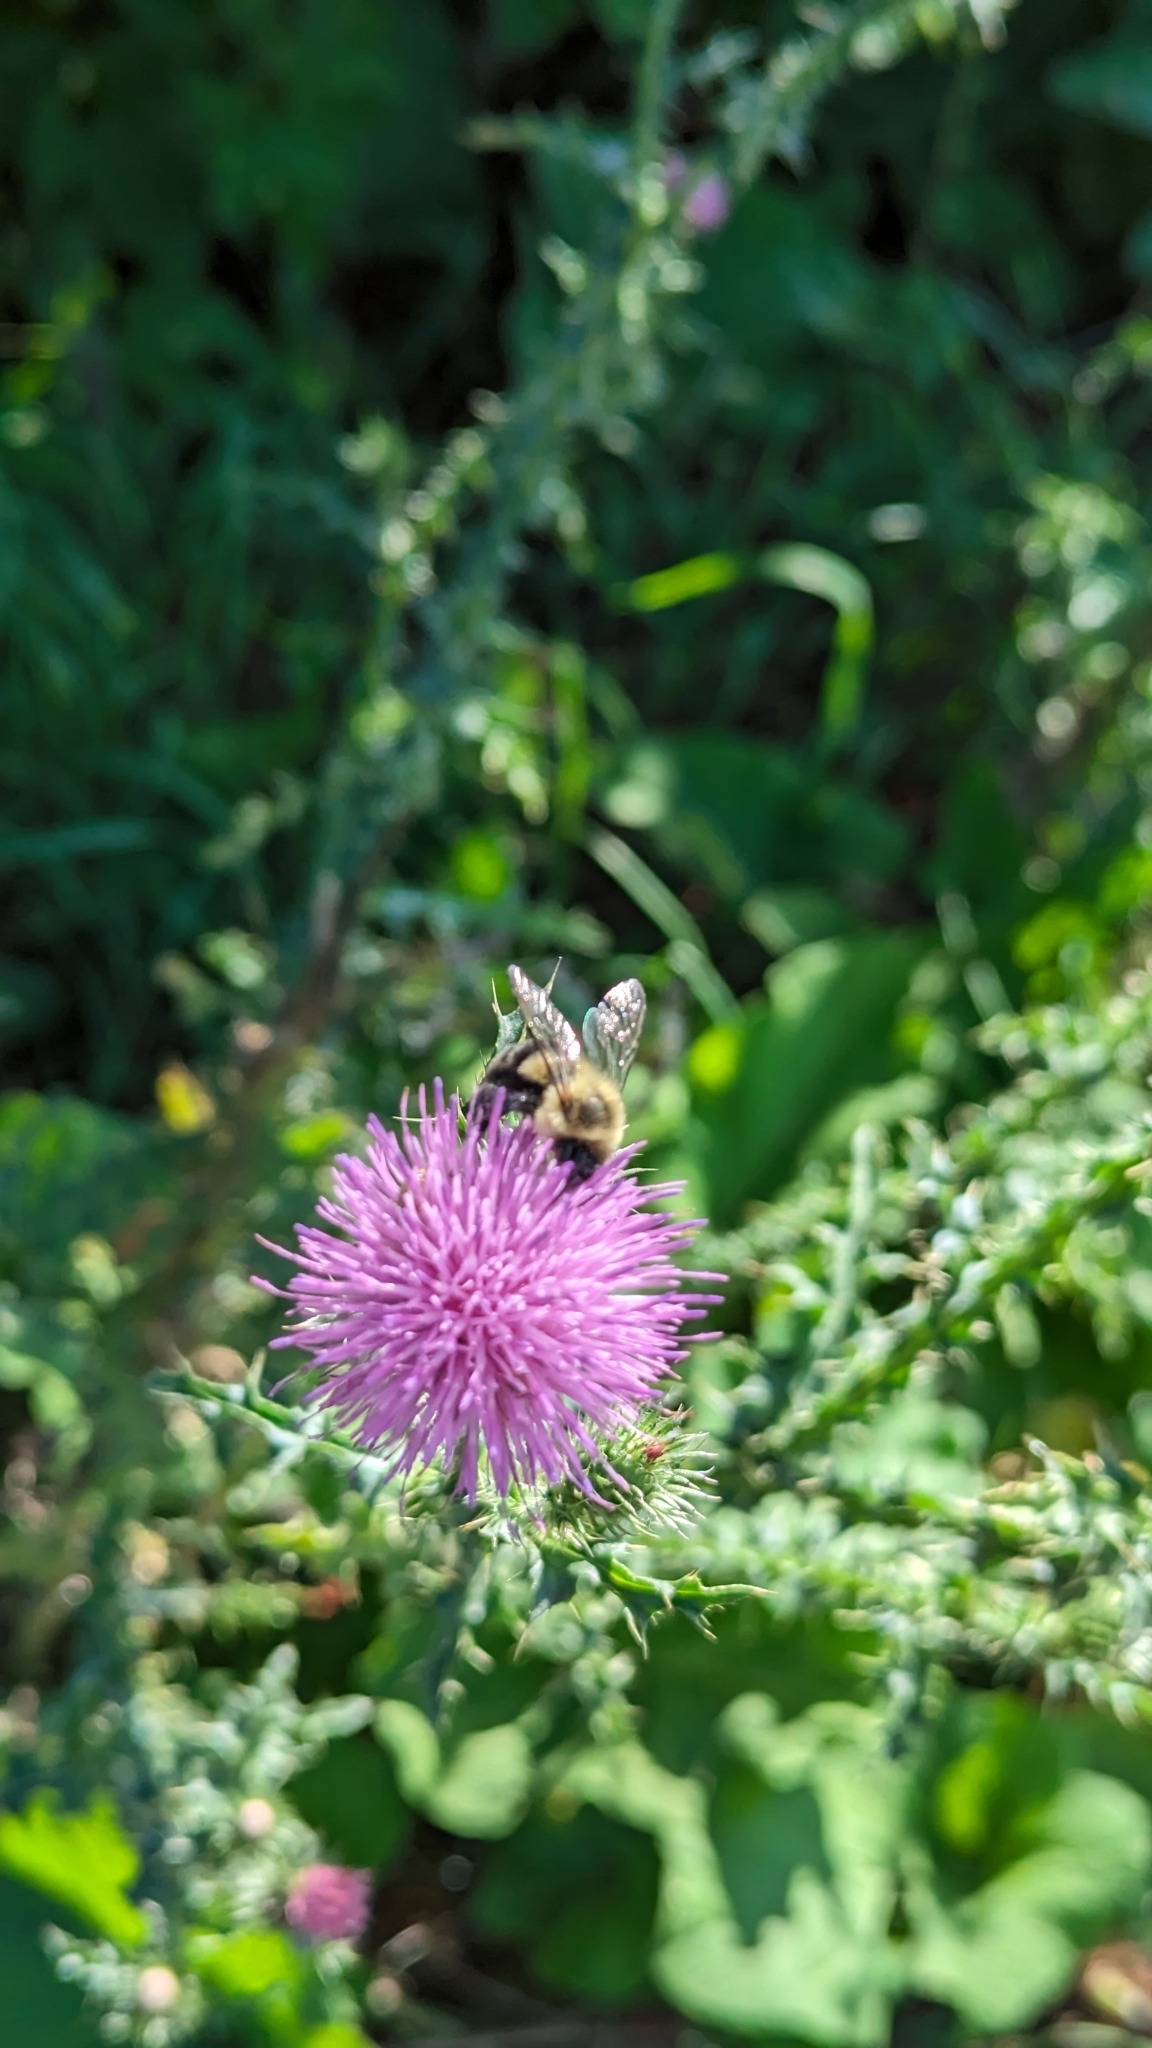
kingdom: Animalia
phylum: Arthropoda
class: Insecta
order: Hymenoptera
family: Apidae
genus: Bombus
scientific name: Bombus impatiens
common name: Common eastern bumble bee
